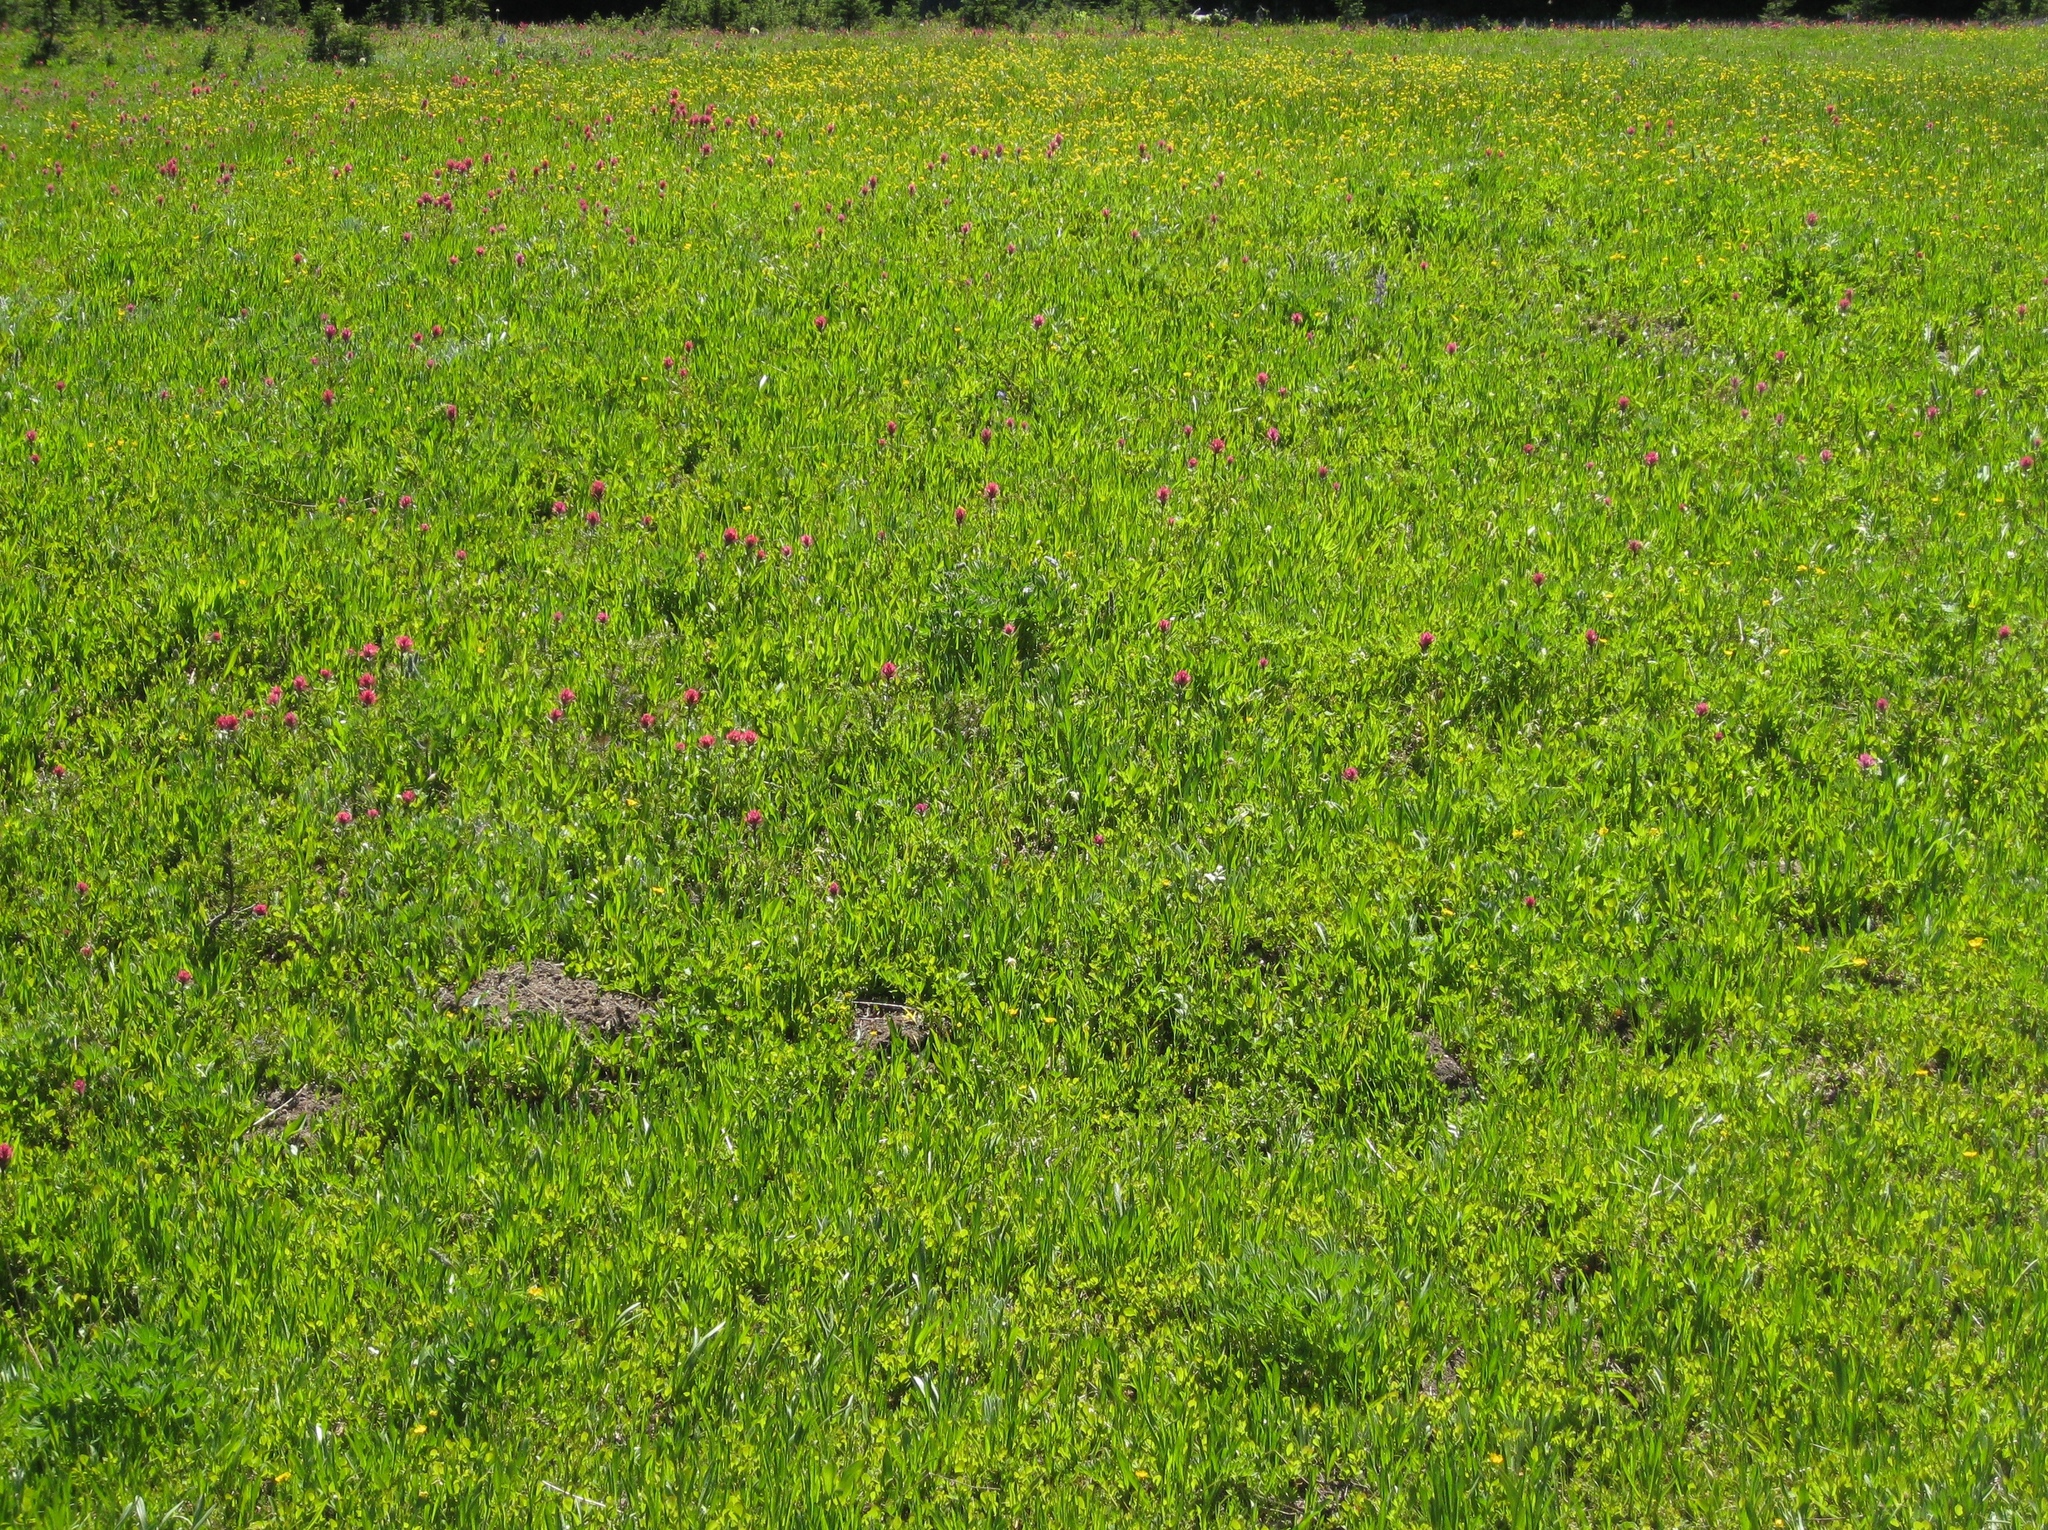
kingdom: Plantae
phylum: Tracheophyta
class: Magnoliopsida
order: Lamiales
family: Orobanchaceae
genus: Castilleja
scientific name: Castilleja parviflora
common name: Mountain paintbrush
